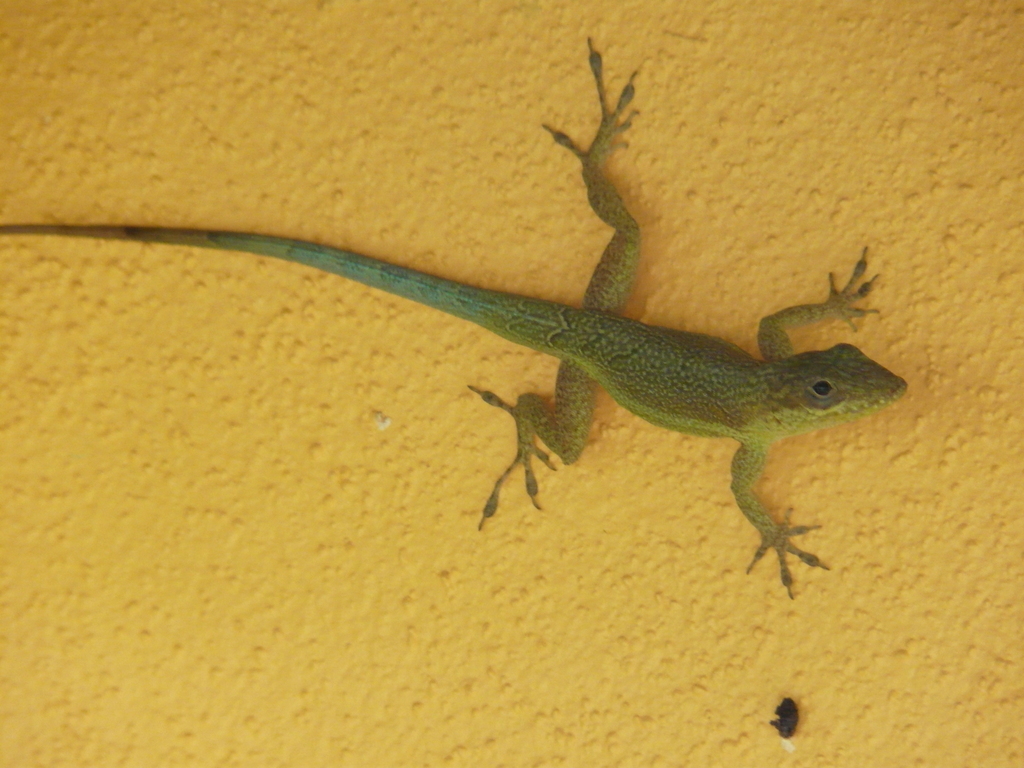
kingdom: Animalia
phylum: Chordata
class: Squamata
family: Dactyloidae
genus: Anolis
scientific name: Anolis opalinus
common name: Bluefields anole
